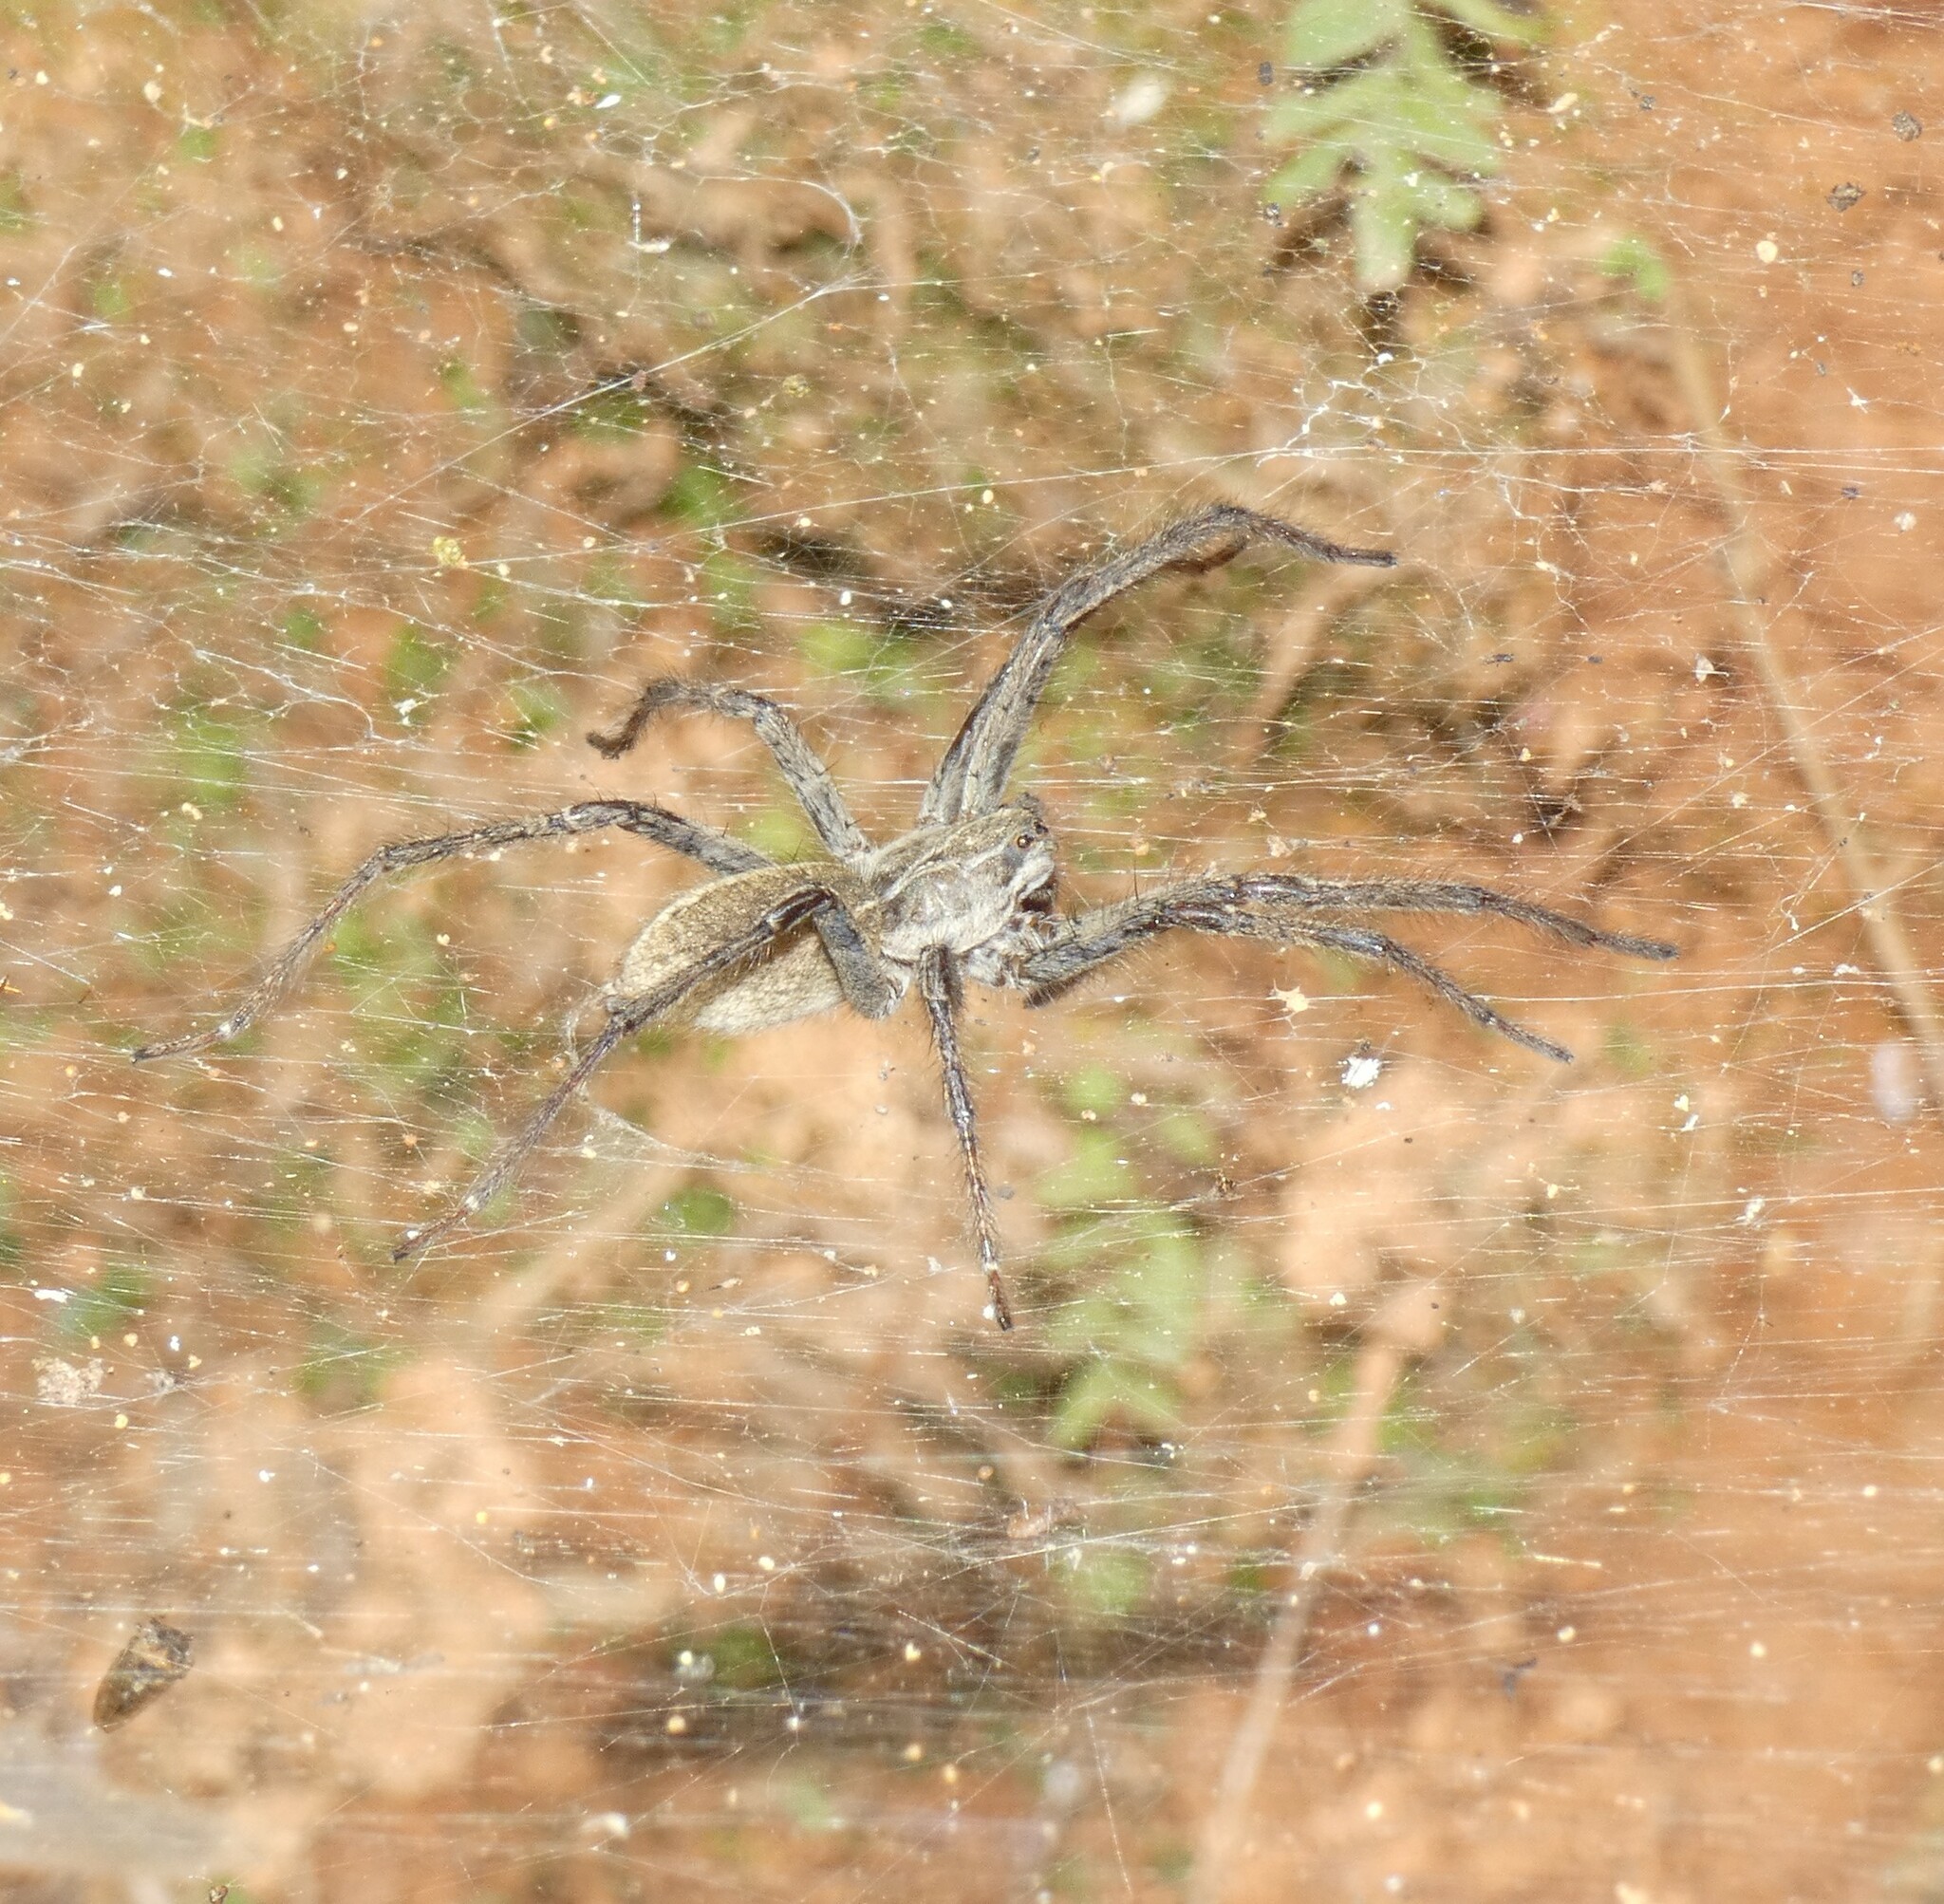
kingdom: Animalia
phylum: Arthropoda
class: Arachnida
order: Araneae
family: Lycosidae
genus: Aglaoctenus
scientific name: Aglaoctenus lagotis
